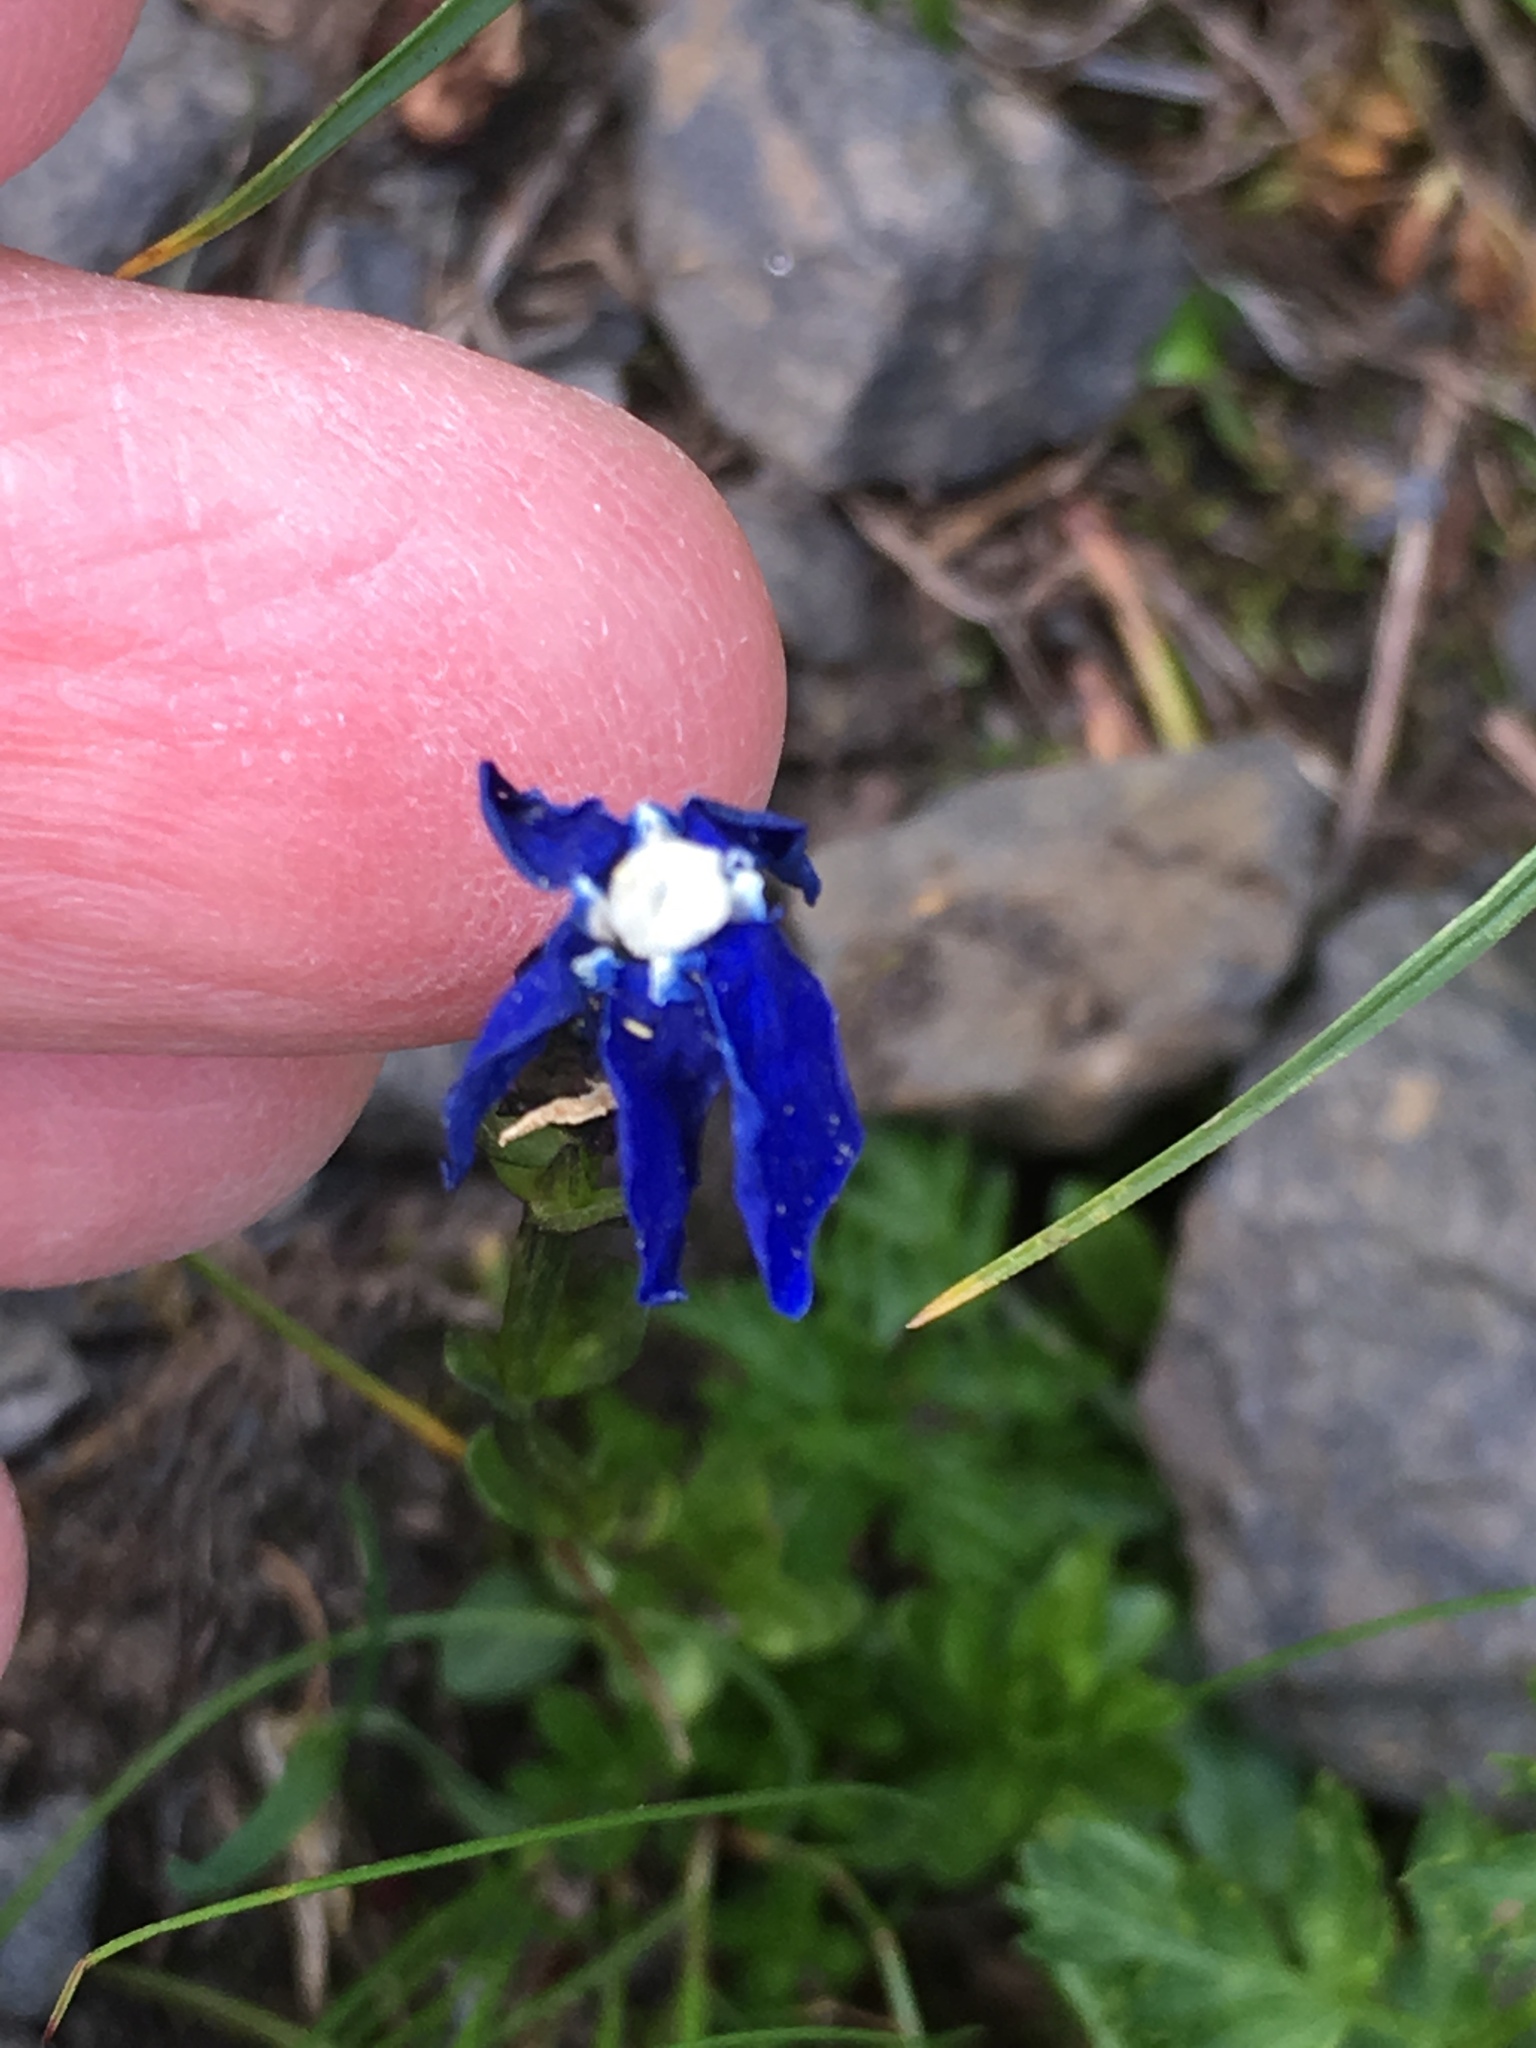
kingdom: Plantae
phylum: Tracheophyta
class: Magnoliopsida
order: Gentianales
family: Gentianaceae
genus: Gentiana
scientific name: Gentiana bavarica
